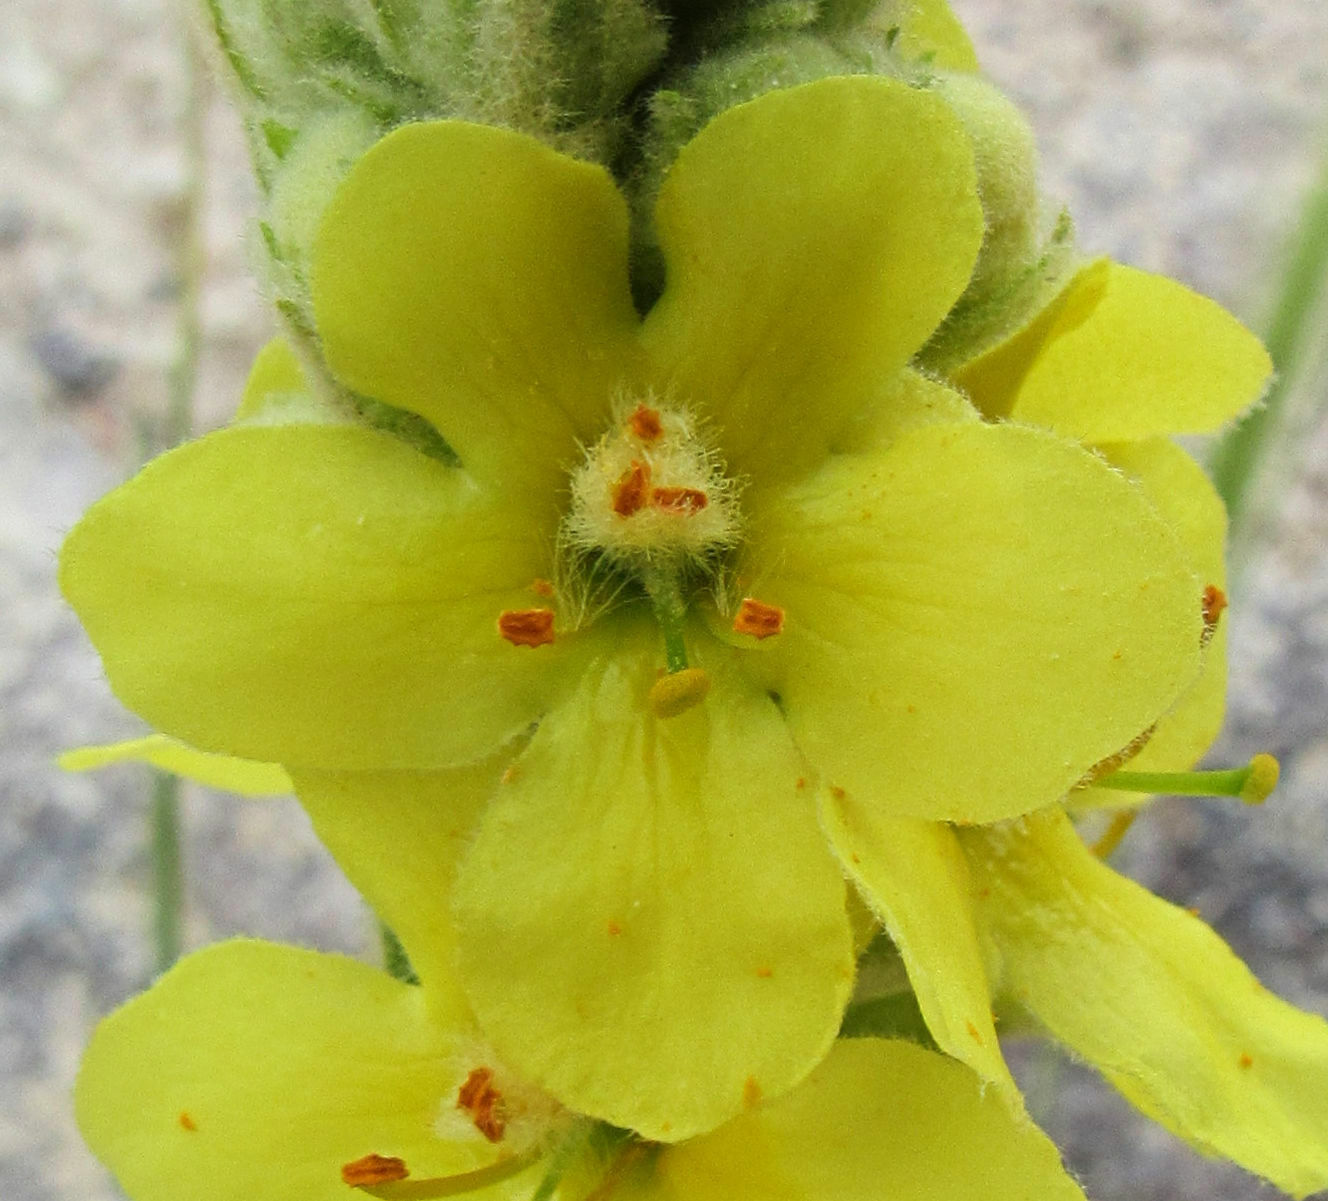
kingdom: Plantae
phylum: Tracheophyta
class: Magnoliopsida
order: Lamiales
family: Scrophulariaceae
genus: Verbascum
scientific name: Verbascum thapsus
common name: Common mullein
